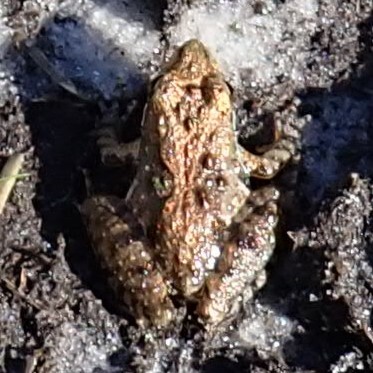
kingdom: Animalia
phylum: Chordata
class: Amphibia
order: Anura
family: Hylidae
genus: Acris
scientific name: Acris gryllus
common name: Southern cricket frog
